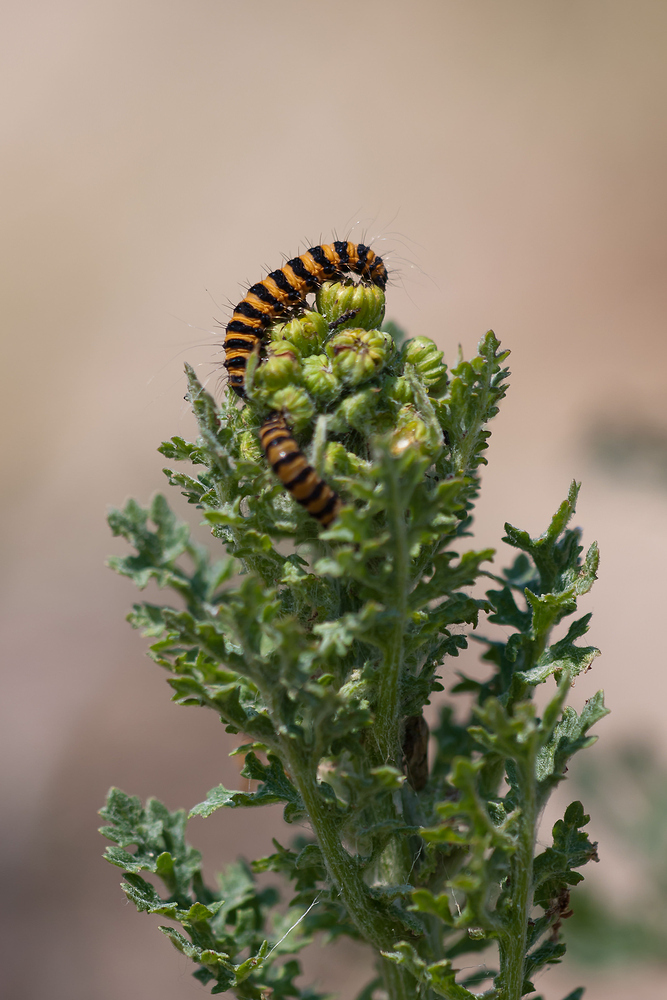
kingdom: Animalia
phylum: Arthropoda
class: Insecta
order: Lepidoptera
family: Erebidae
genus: Tyria
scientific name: Tyria jacobaeae
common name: Cinnabar
